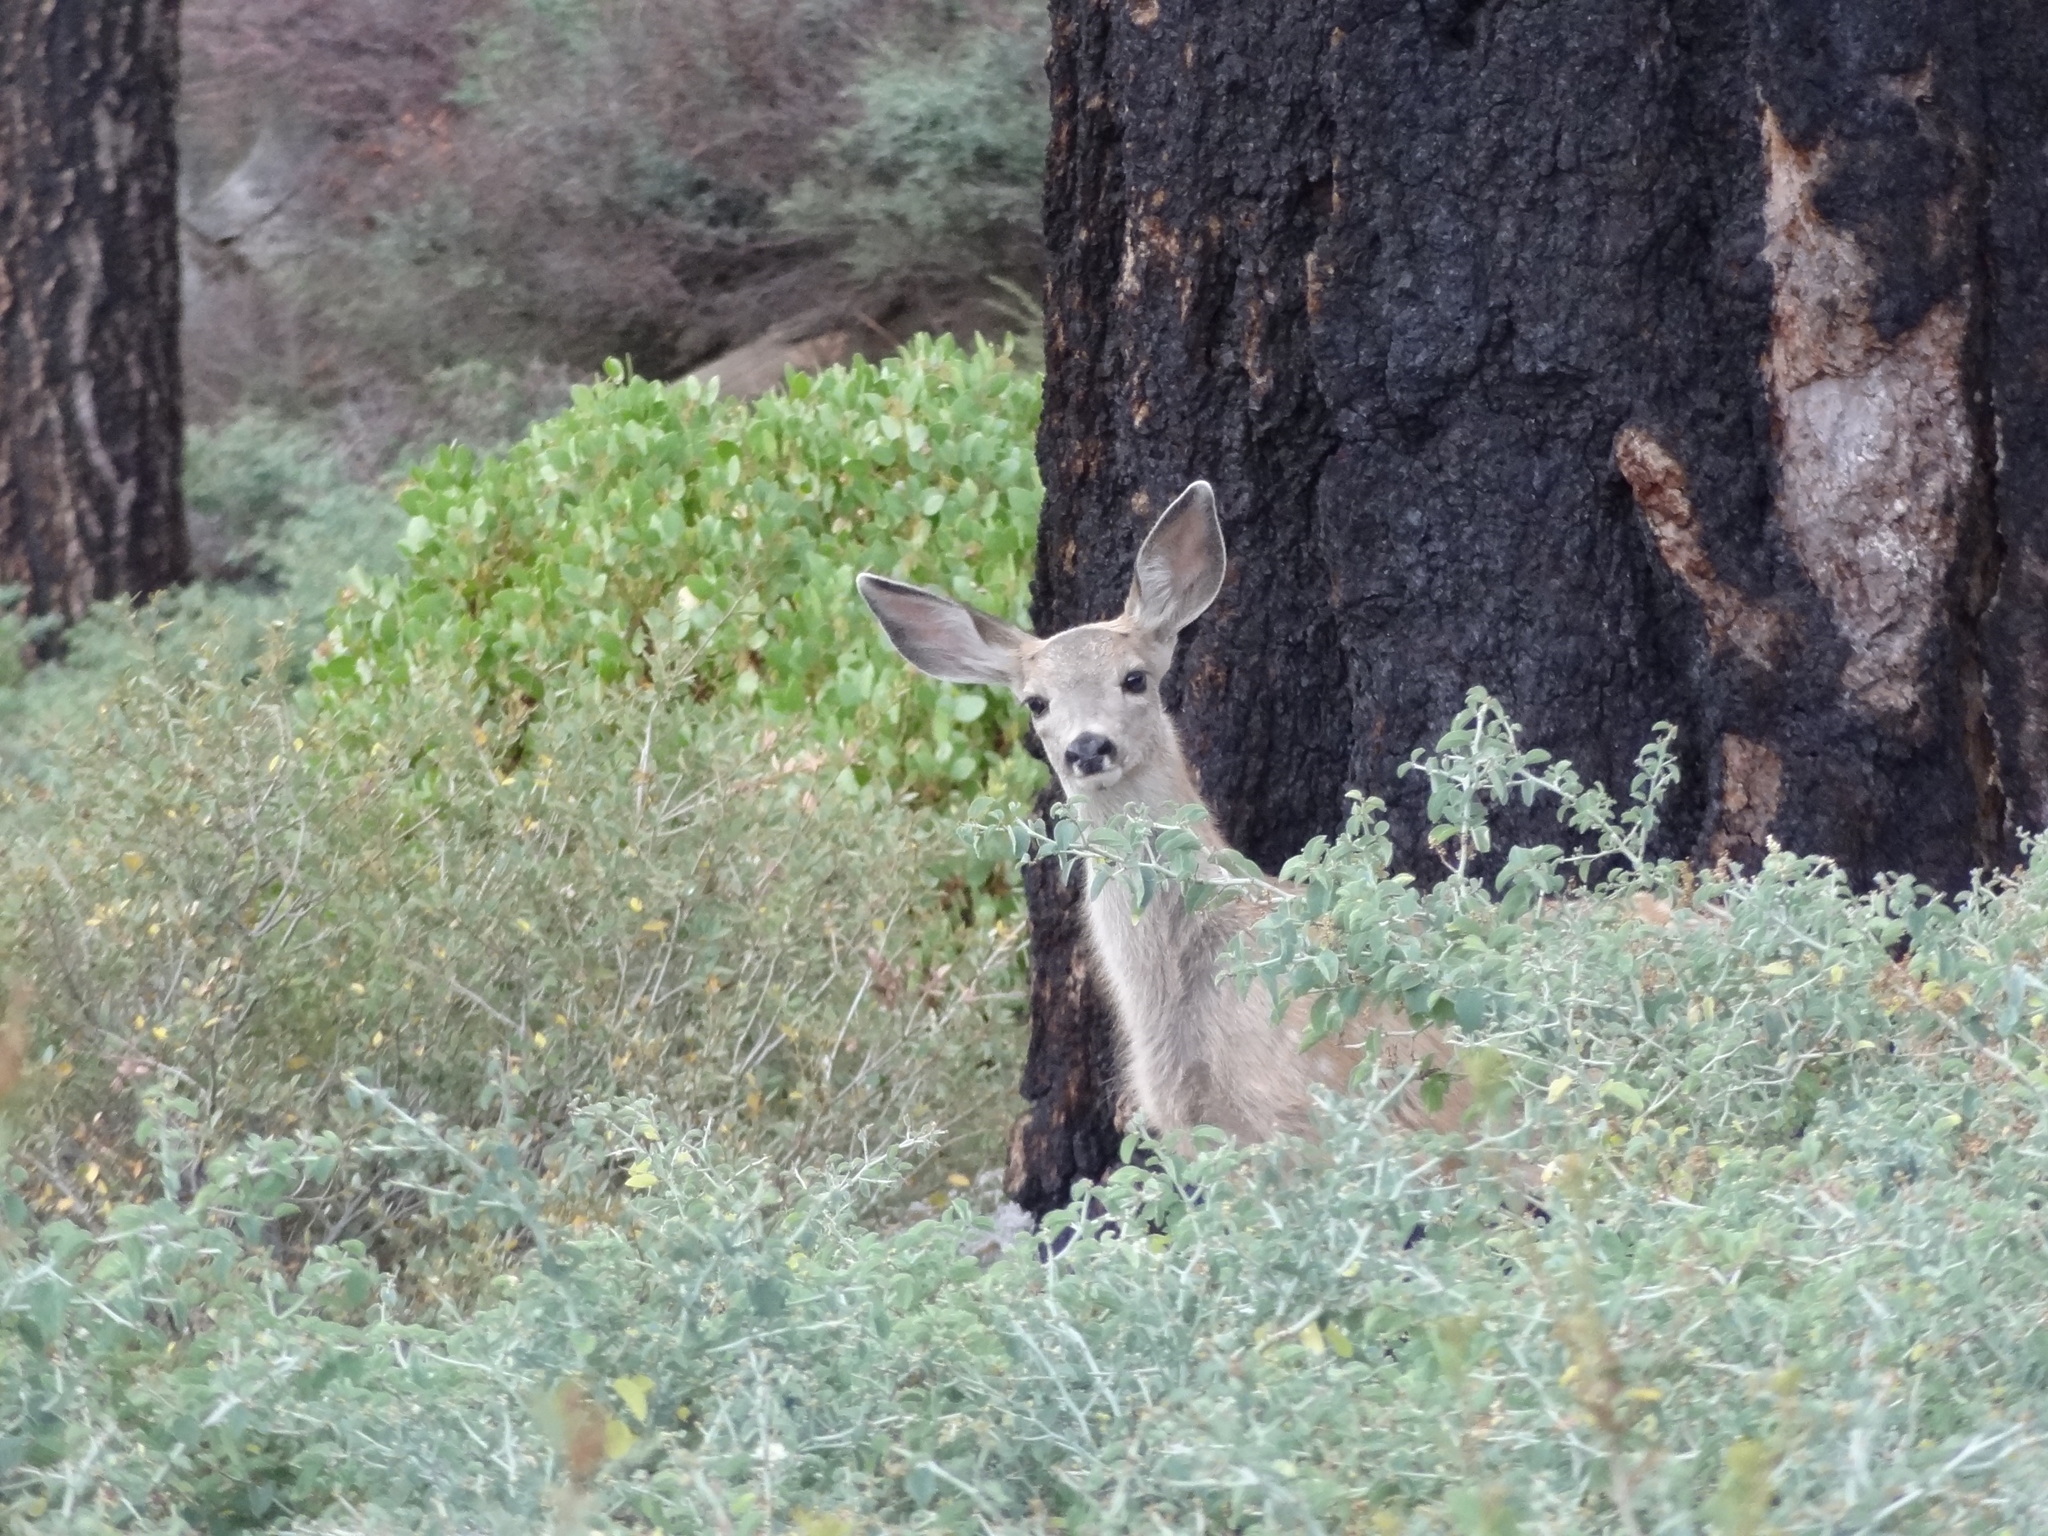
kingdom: Animalia
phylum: Chordata
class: Mammalia
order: Artiodactyla
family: Cervidae
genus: Odocoileus
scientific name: Odocoileus hemionus
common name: Mule deer
